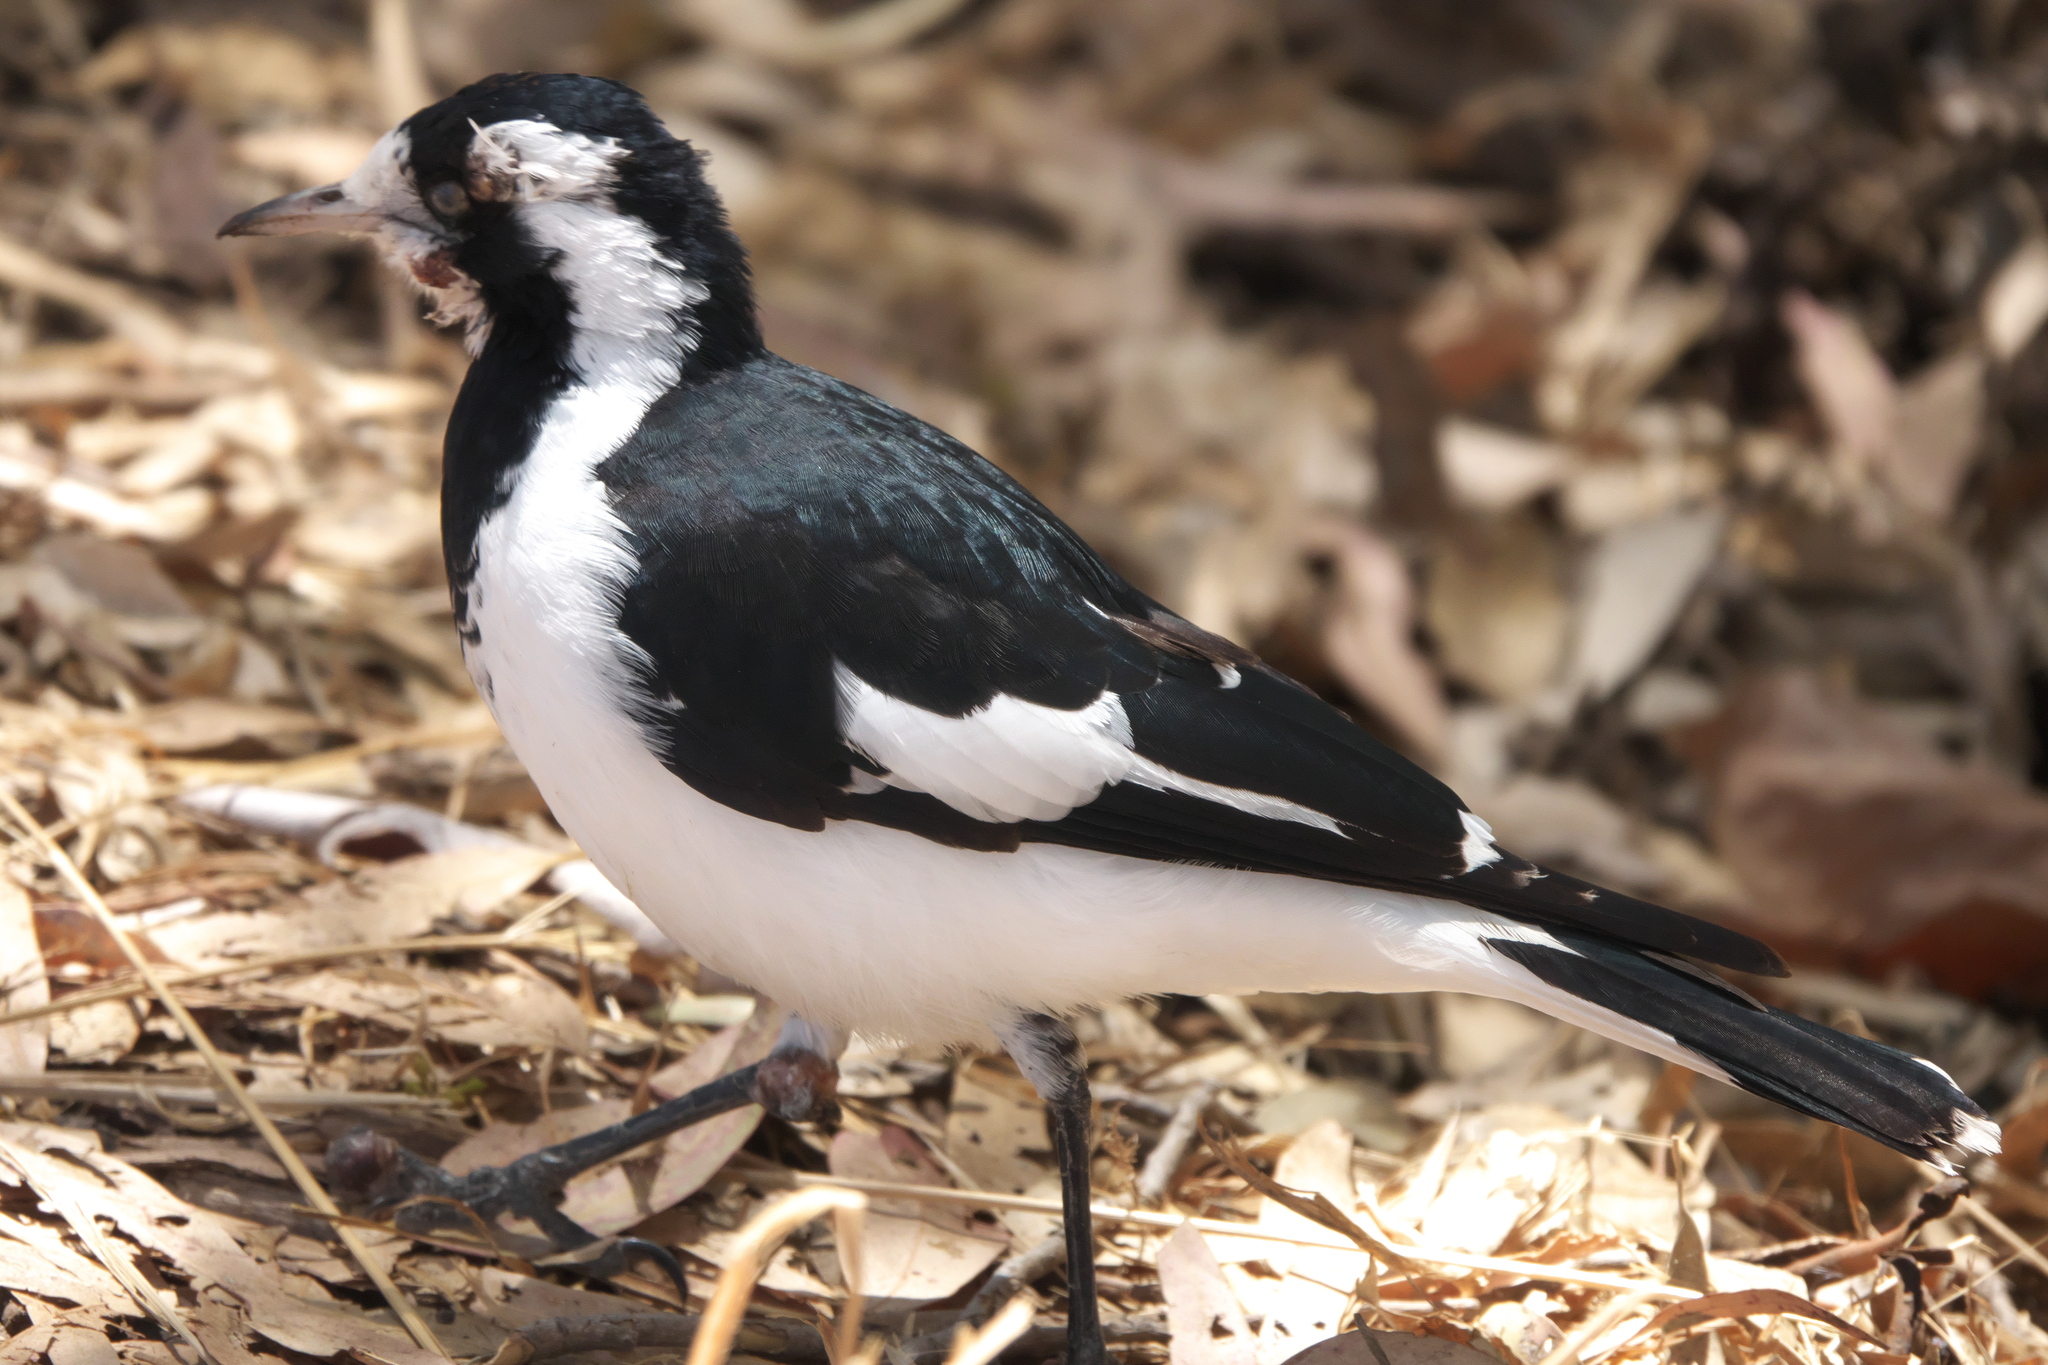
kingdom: Animalia
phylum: Chordata
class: Aves
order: Passeriformes
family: Monarchidae
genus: Grallina
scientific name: Grallina cyanoleuca
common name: Magpie-lark
